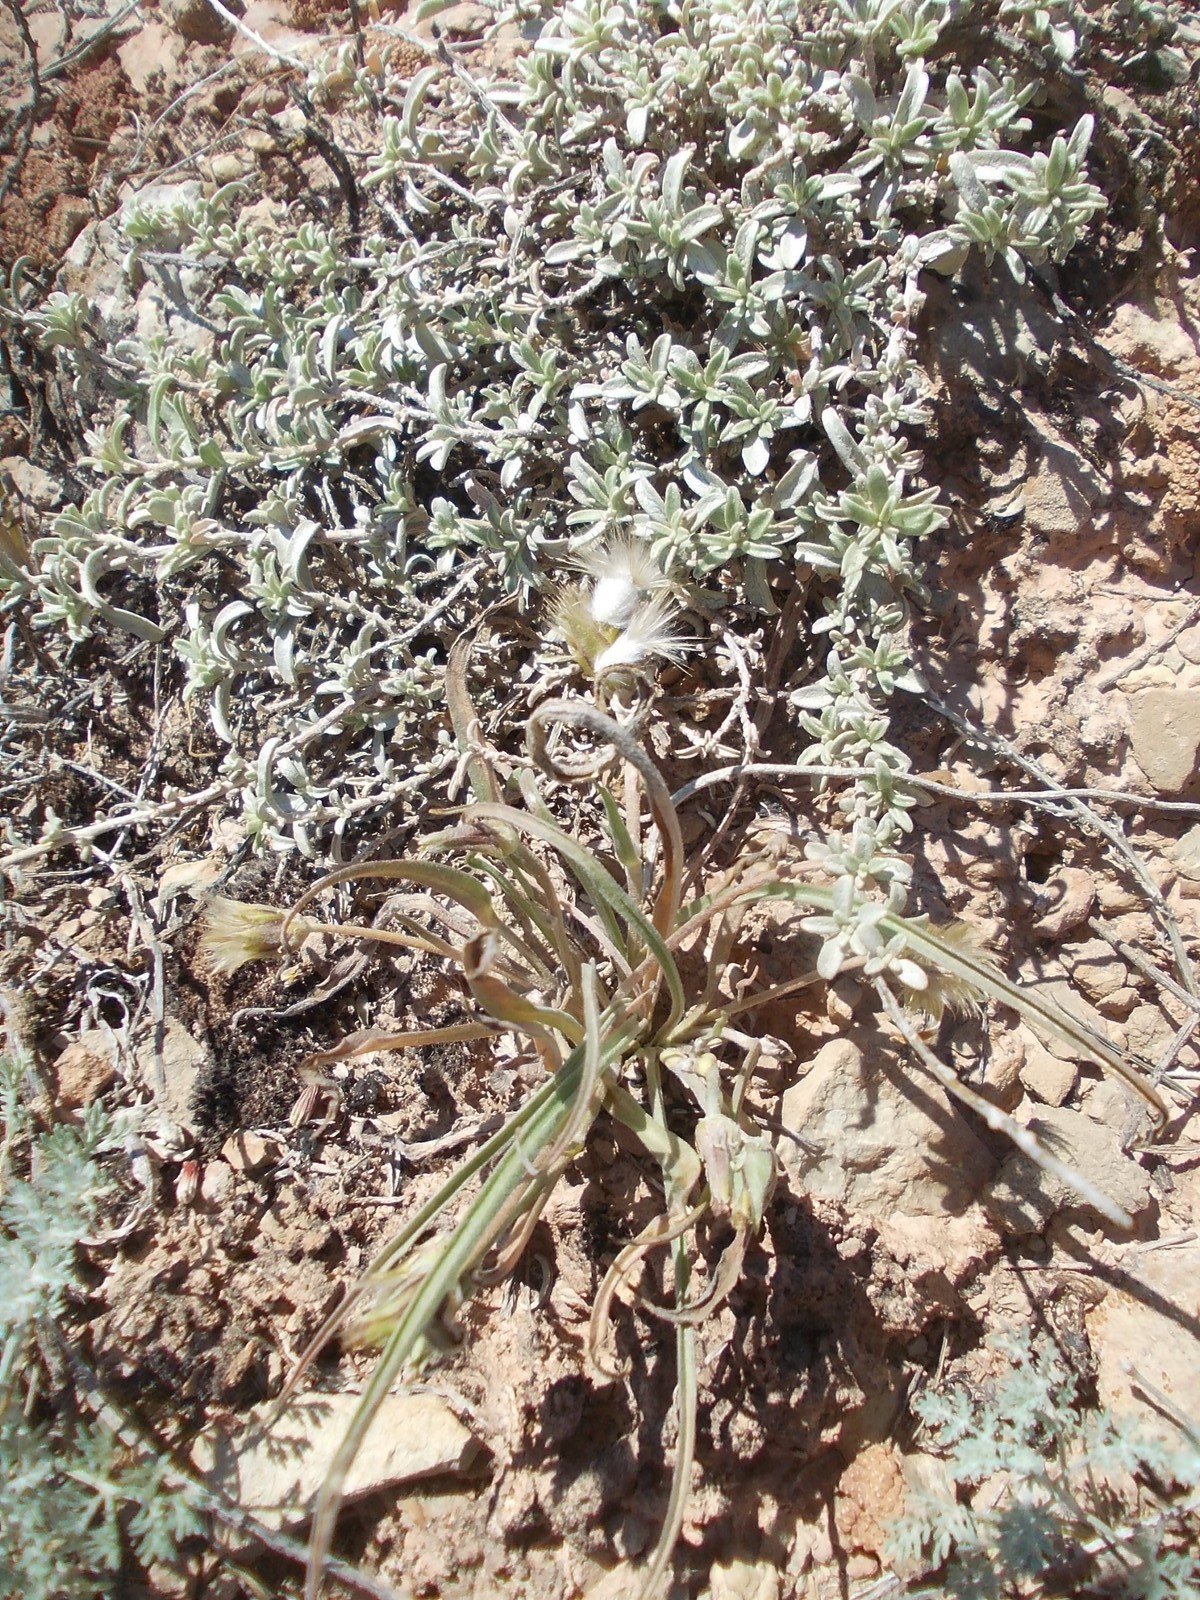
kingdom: Plantae
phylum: Tracheophyta
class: Magnoliopsida
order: Caryophyllales
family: Amaranthaceae
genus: Atriplex
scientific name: Atriplex cana
